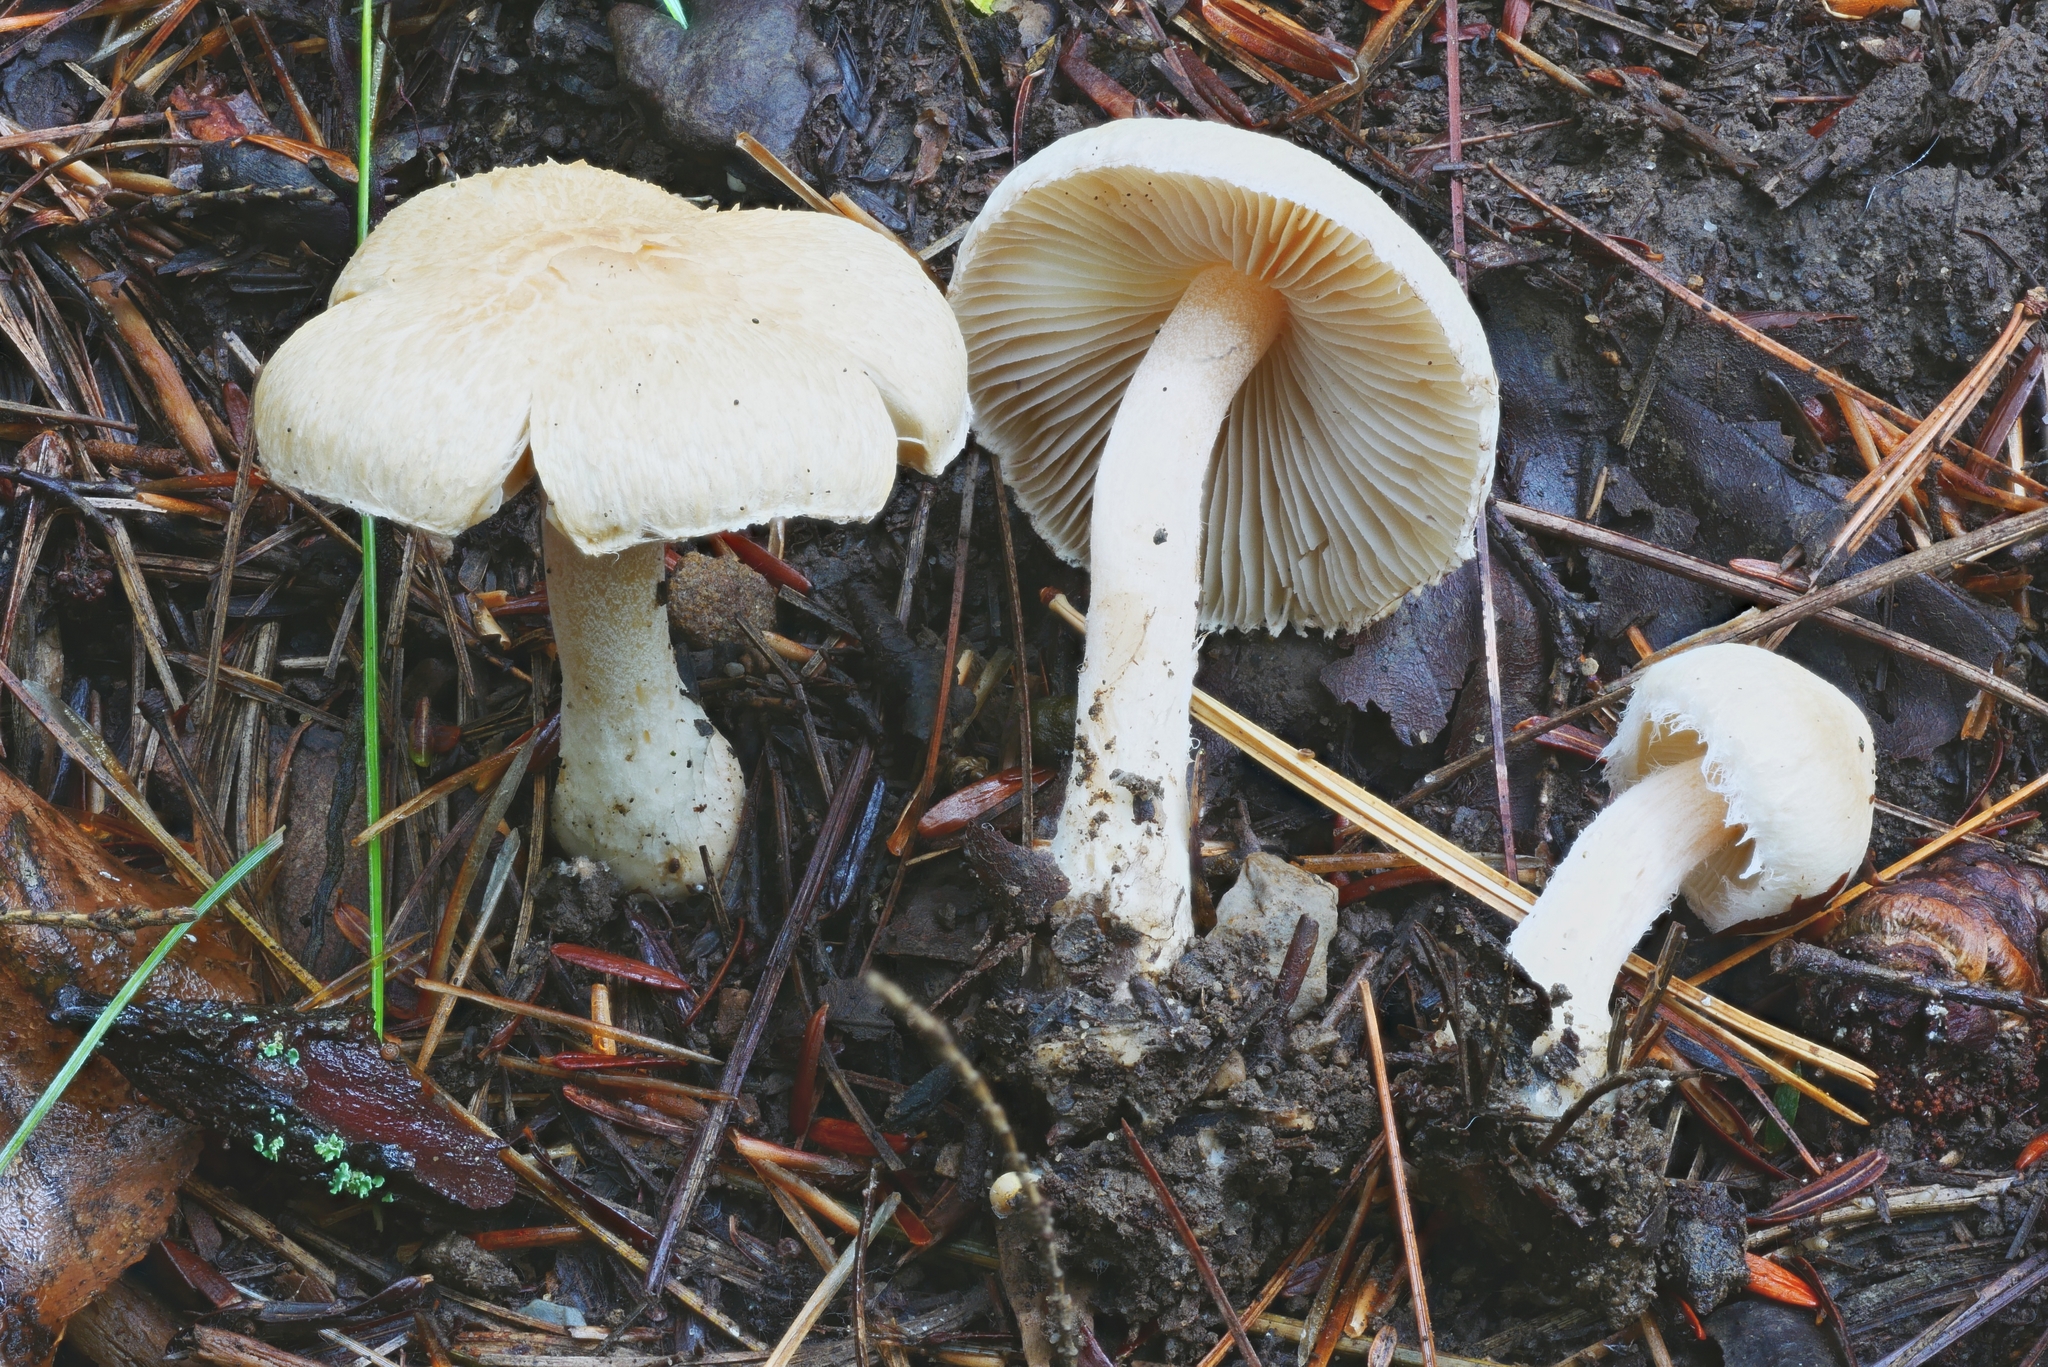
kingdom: Fungi
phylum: Basidiomycota
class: Agaricomycetes
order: Agaricales
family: Inocybaceae
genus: Inocybe
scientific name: Inocybe sindonia
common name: Beige fibrecap
